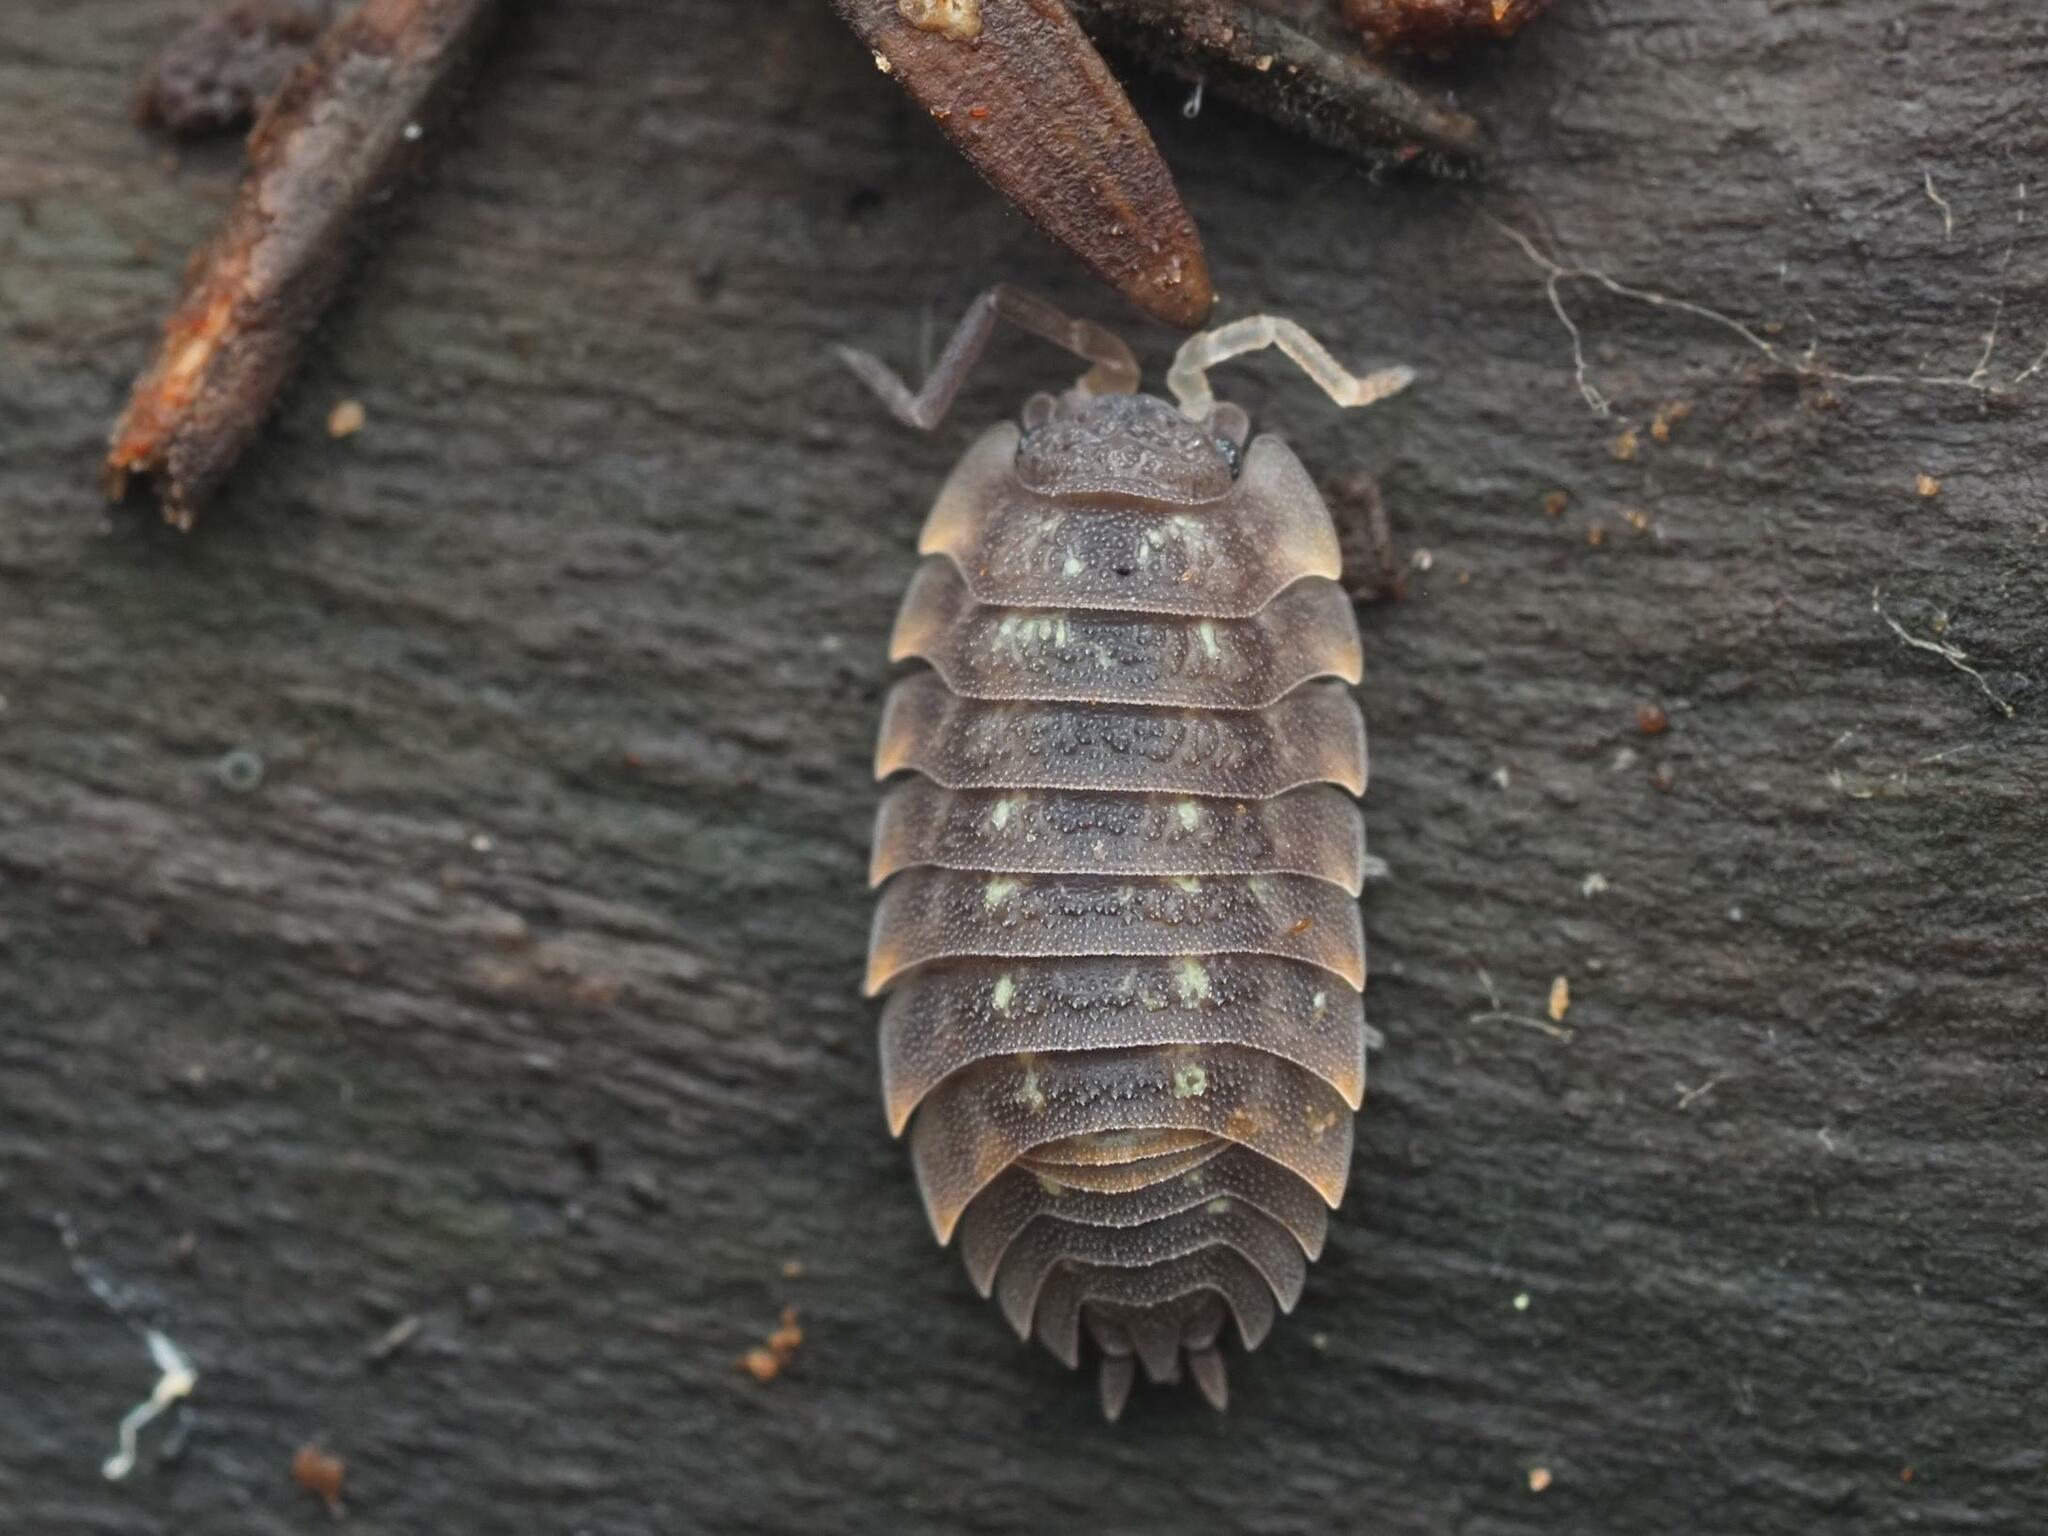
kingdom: Animalia
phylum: Arthropoda
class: Malacostraca
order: Isopoda
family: Oniscidae
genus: Oniscus
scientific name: Oniscus asellus
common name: Common shiny woodlouse
